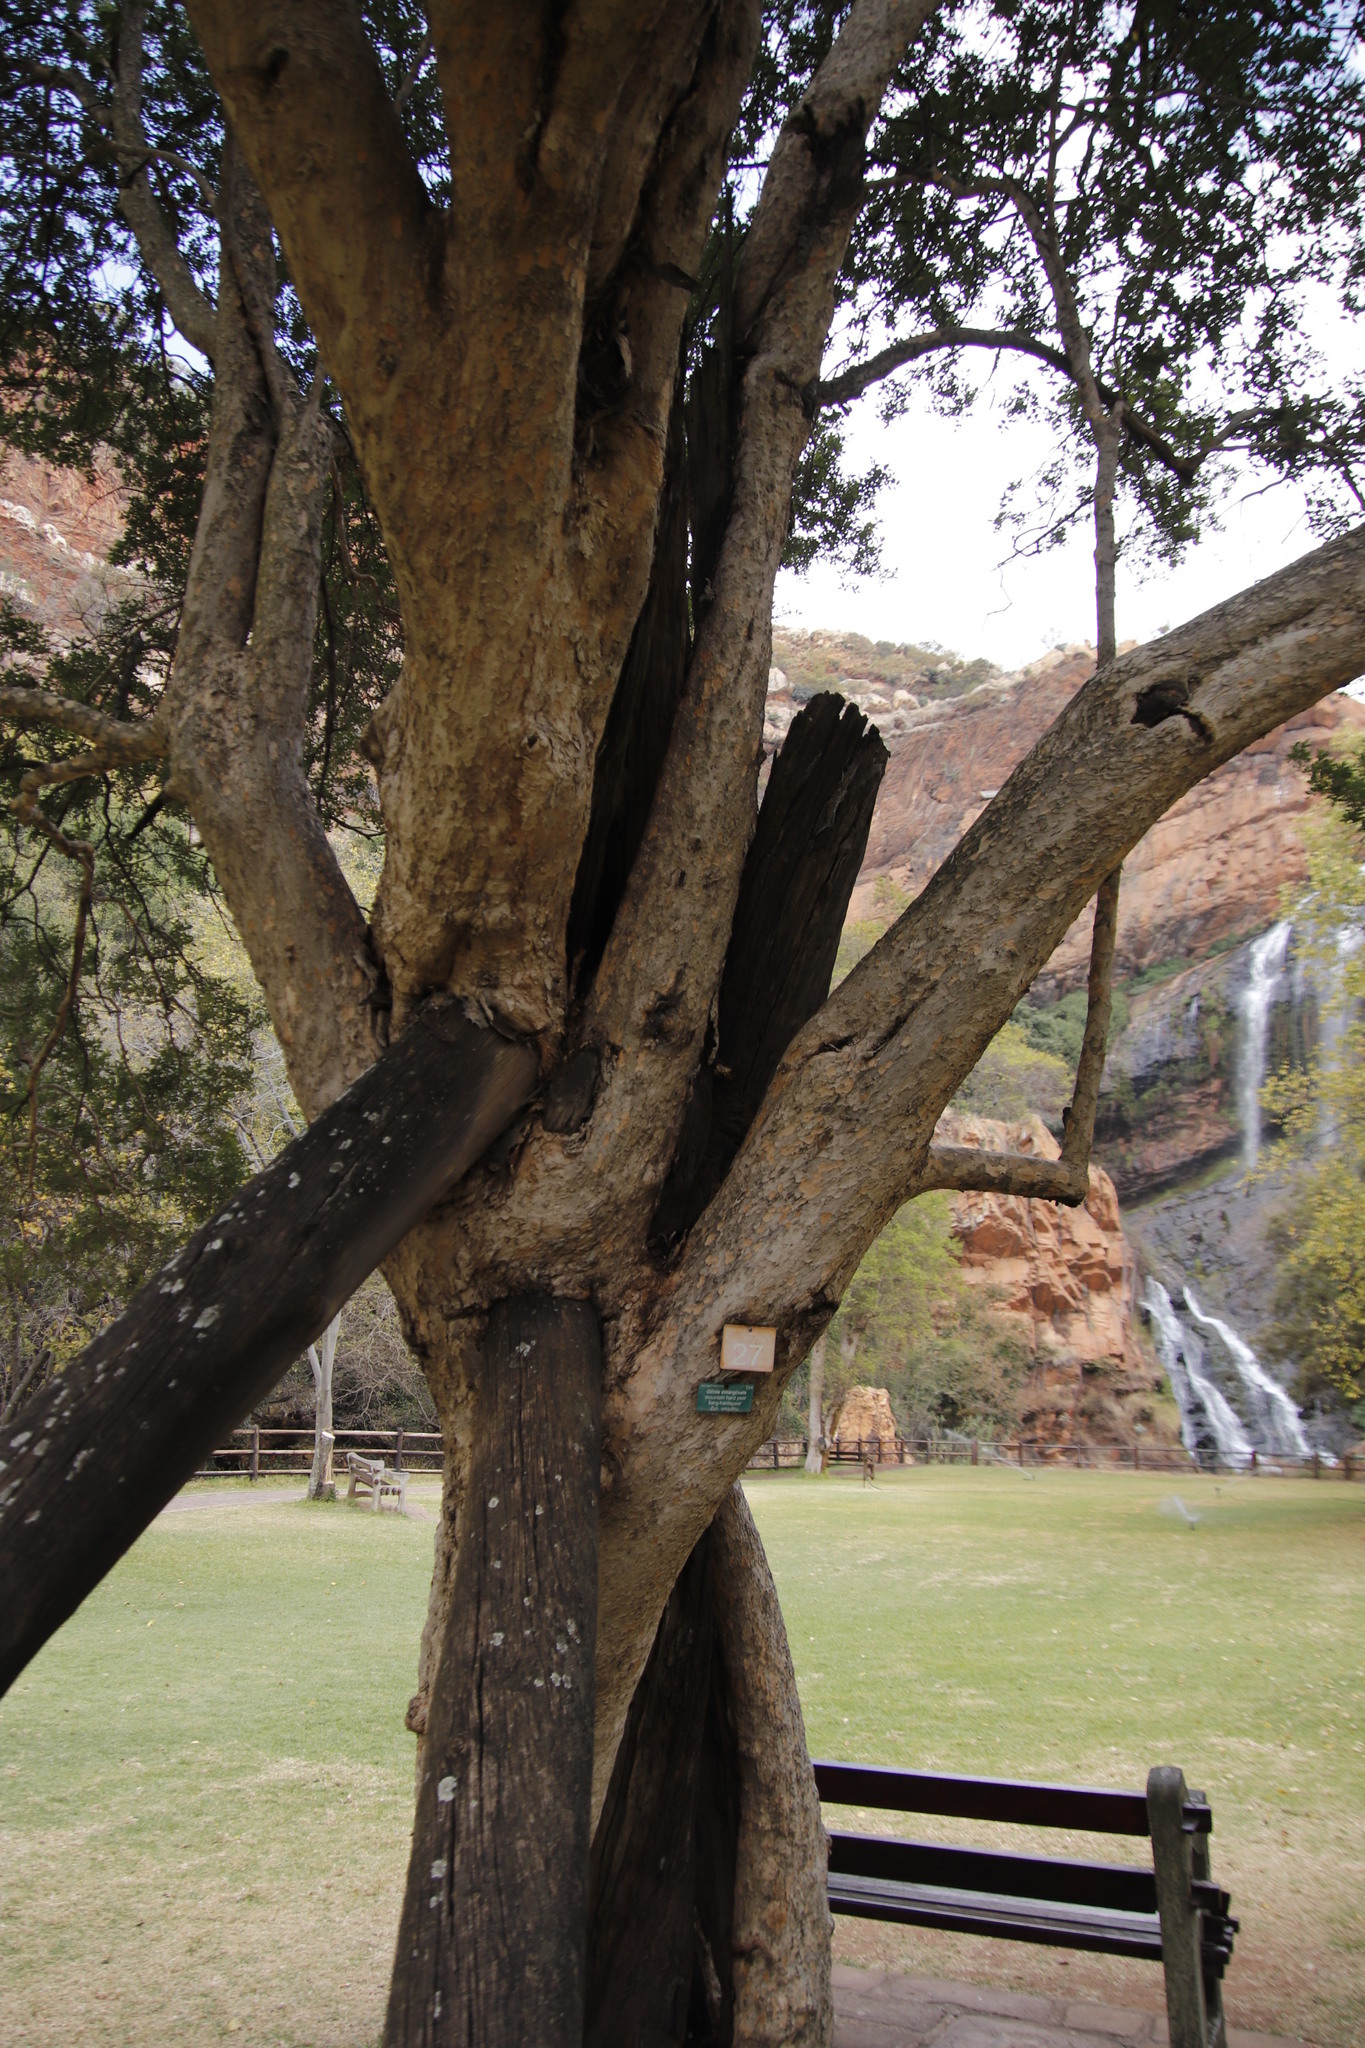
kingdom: Plantae
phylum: Tracheophyta
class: Magnoliopsida
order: Myrtales
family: Penaeaceae
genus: Olinia
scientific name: Olinia emarginata
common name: Mountain hard pear
